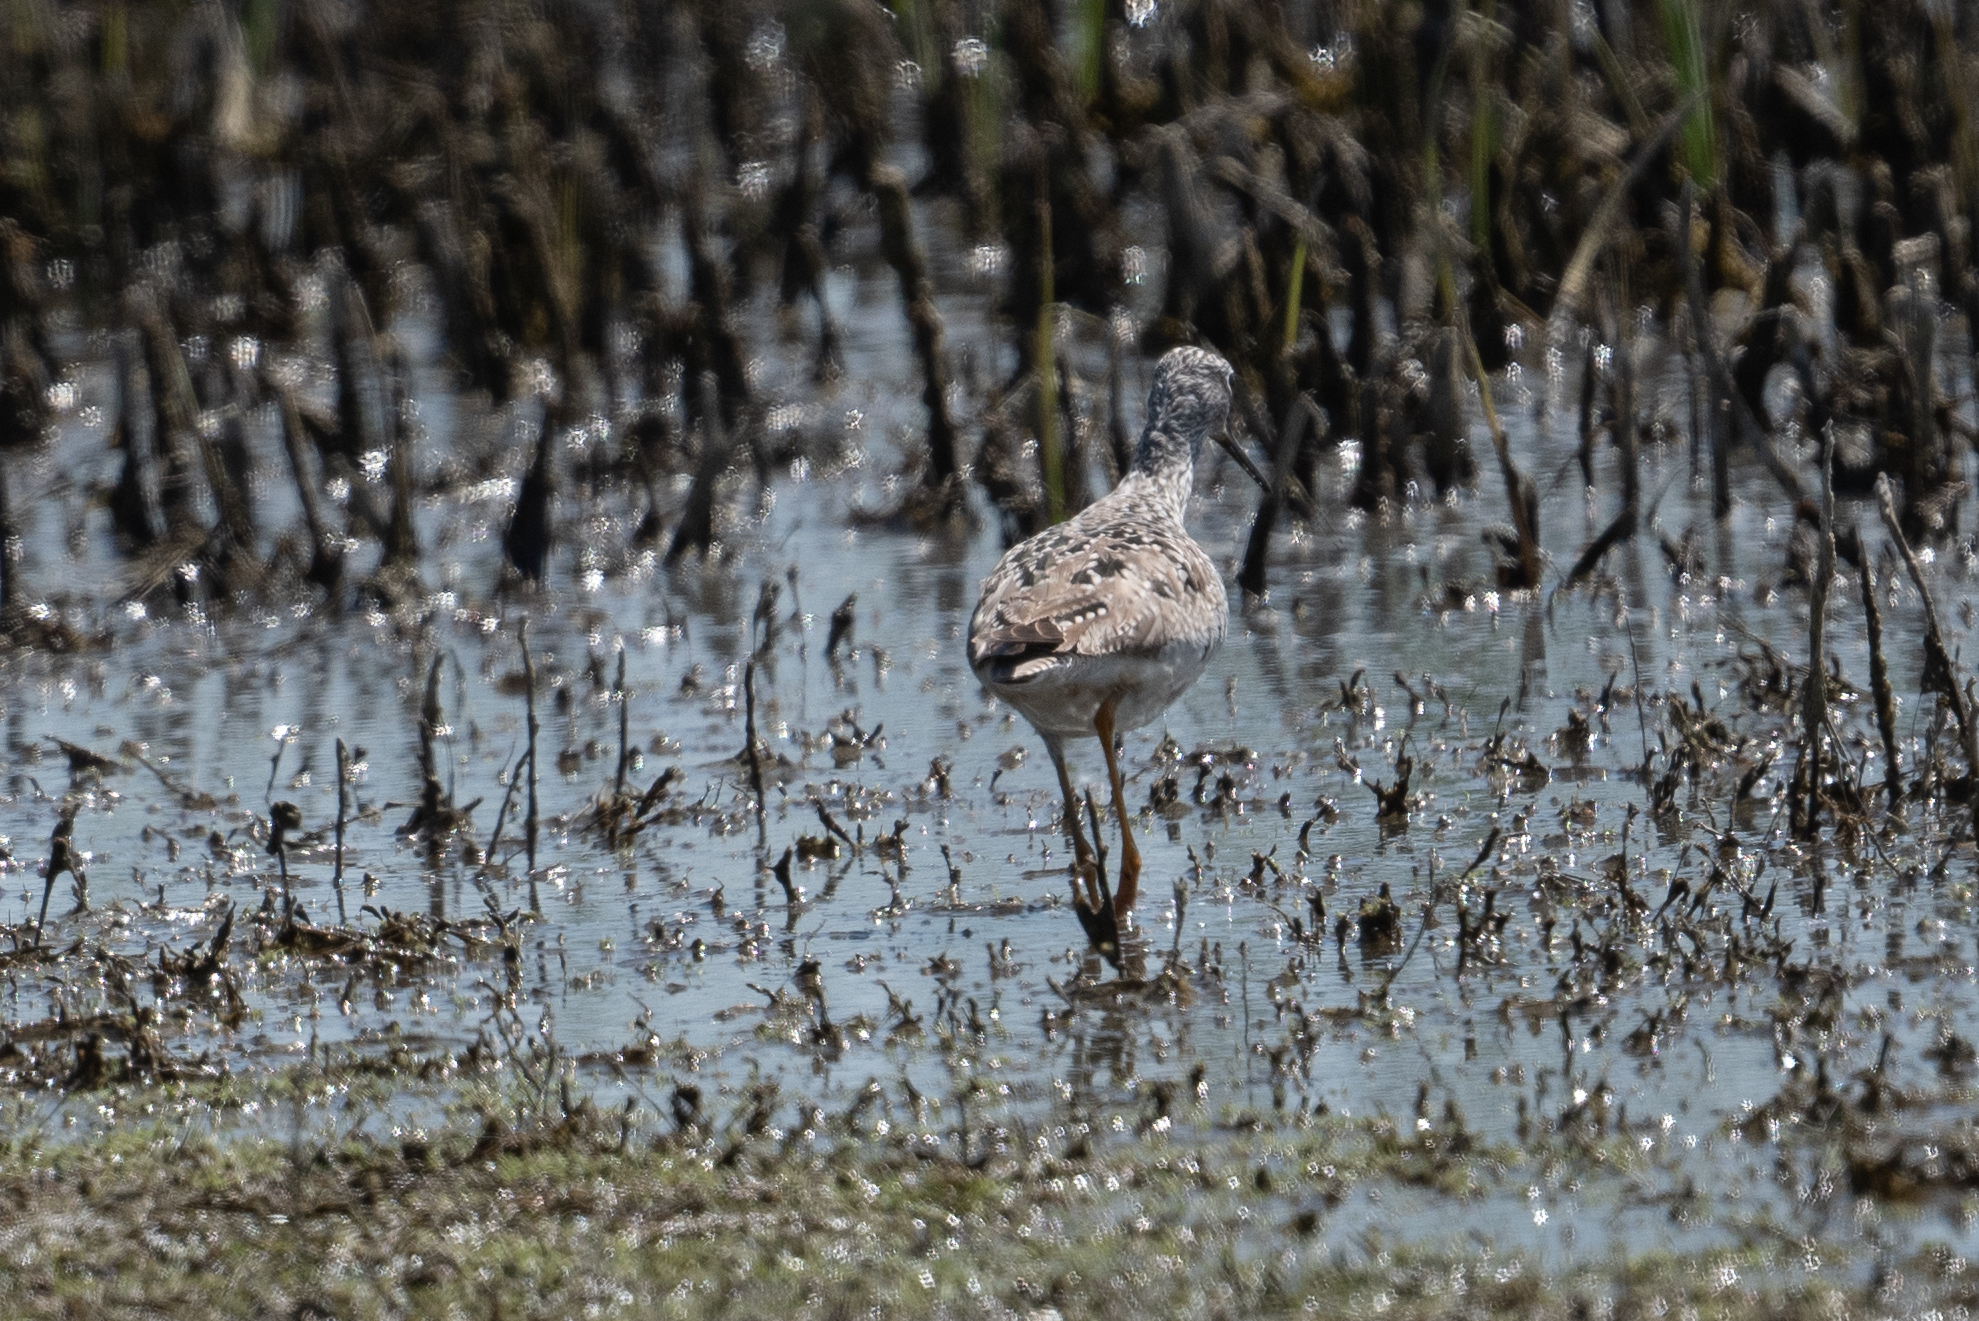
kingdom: Animalia
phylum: Chordata
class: Aves
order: Charadriiformes
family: Scolopacidae
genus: Tringa
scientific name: Tringa melanoleuca
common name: Greater yellowlegs
